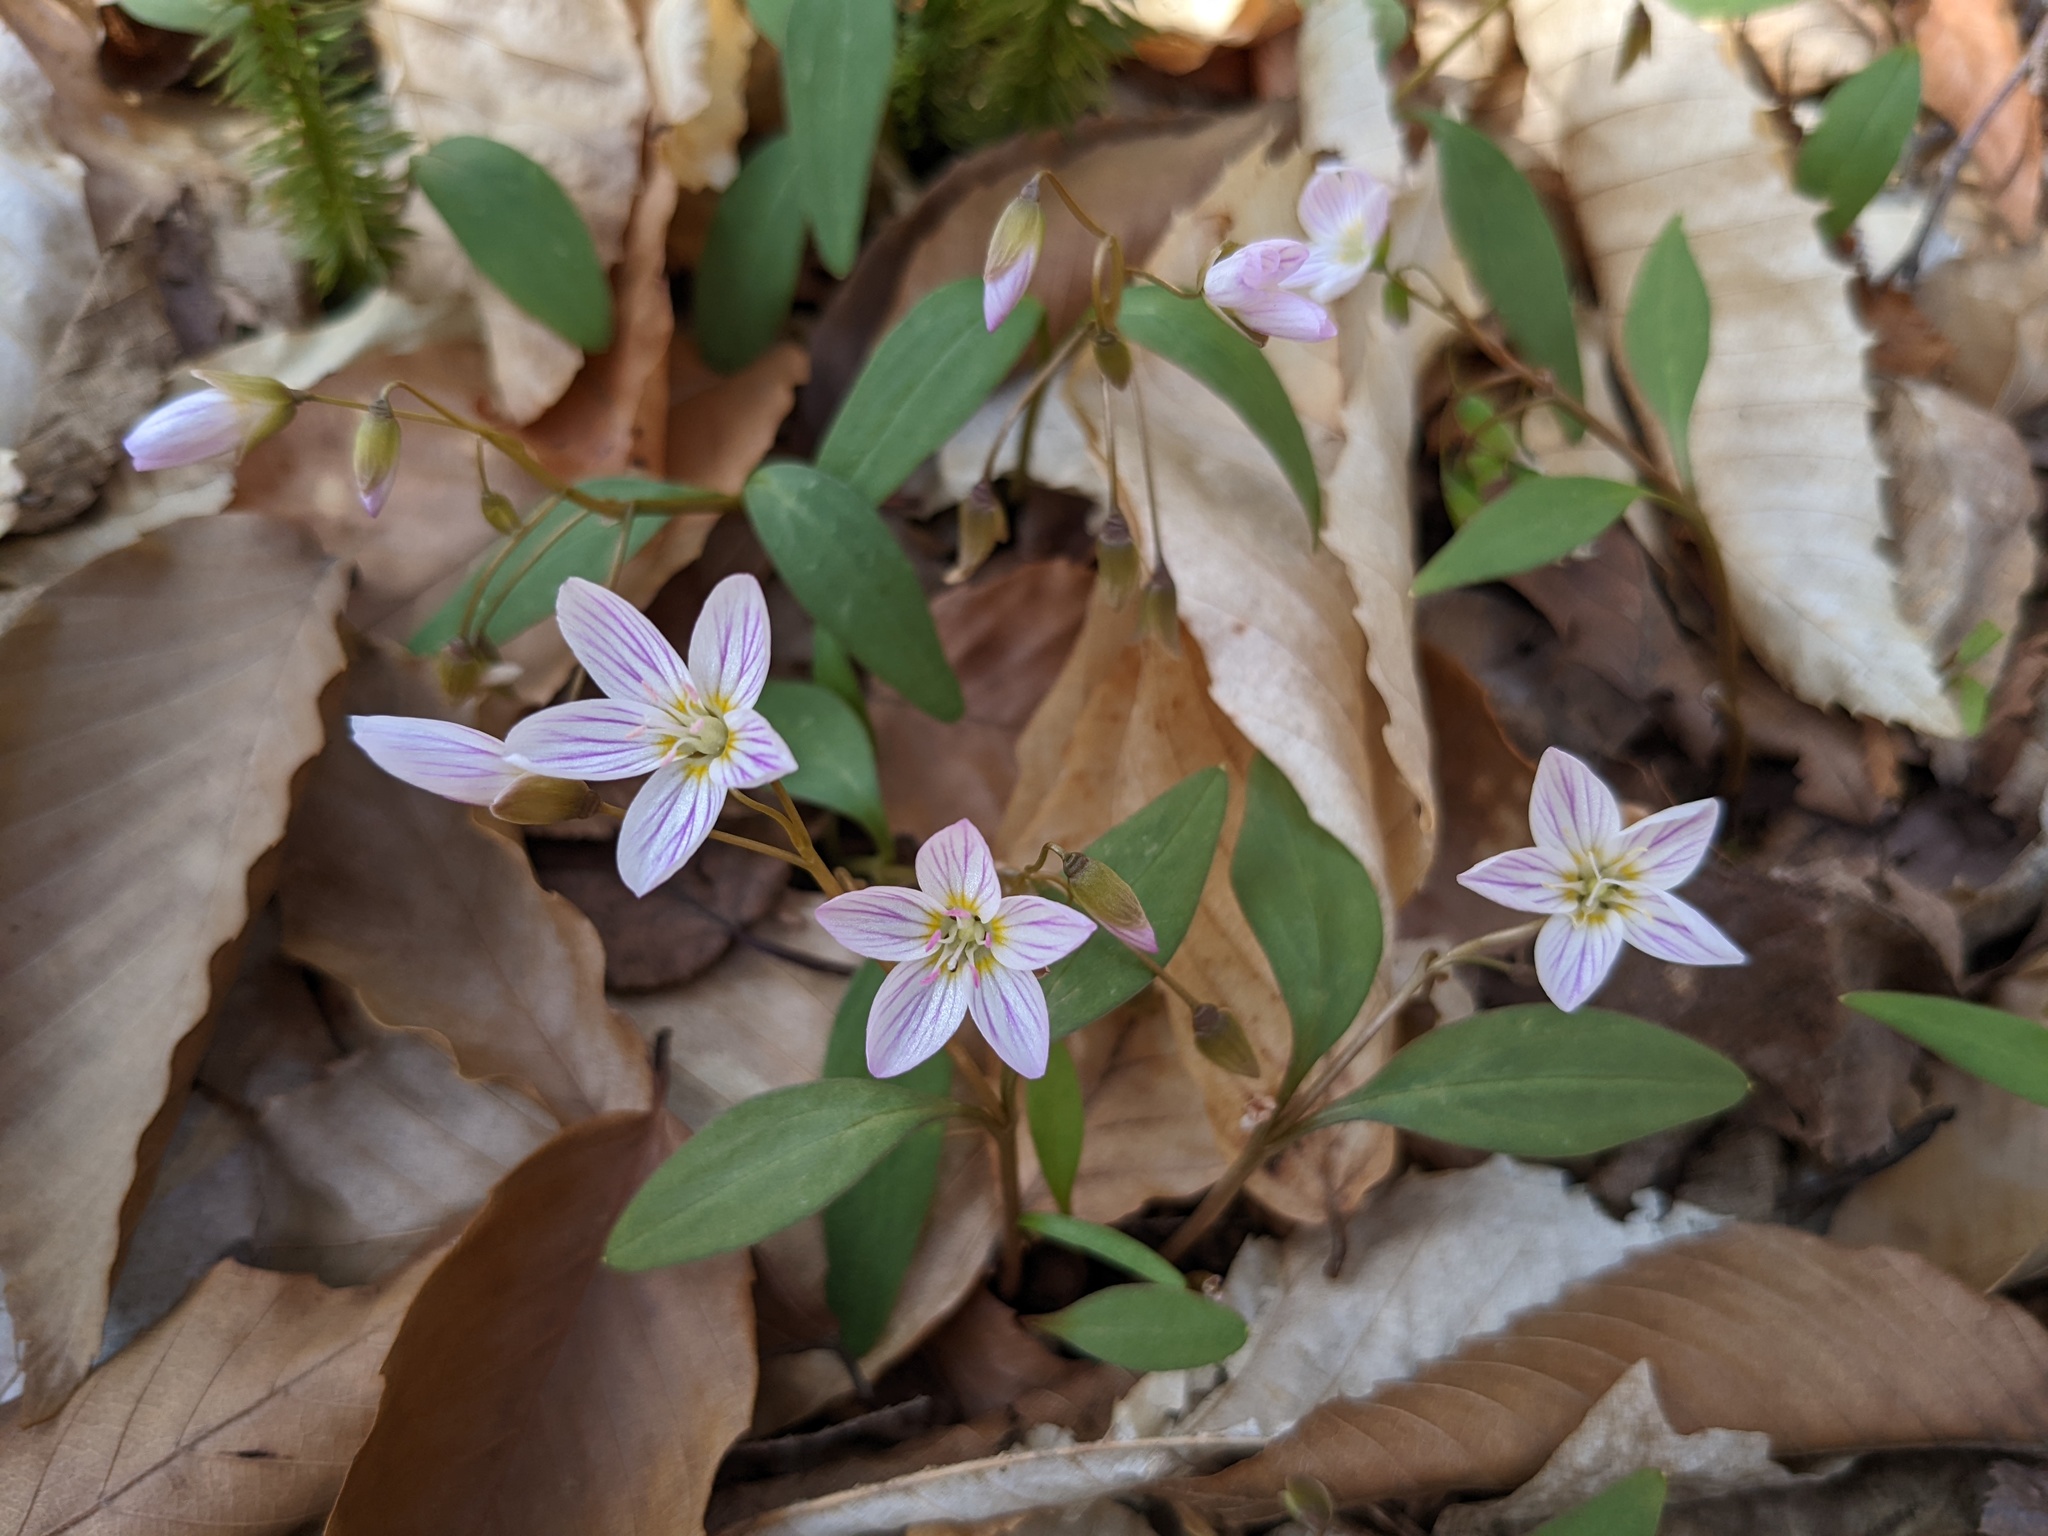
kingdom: Plantae
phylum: Tracheophyta
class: Magnoliopsida
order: Caryophyllales
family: Montiaceae
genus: Claytonia
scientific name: Claytonia caroliniana
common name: Carolina spring beauty
